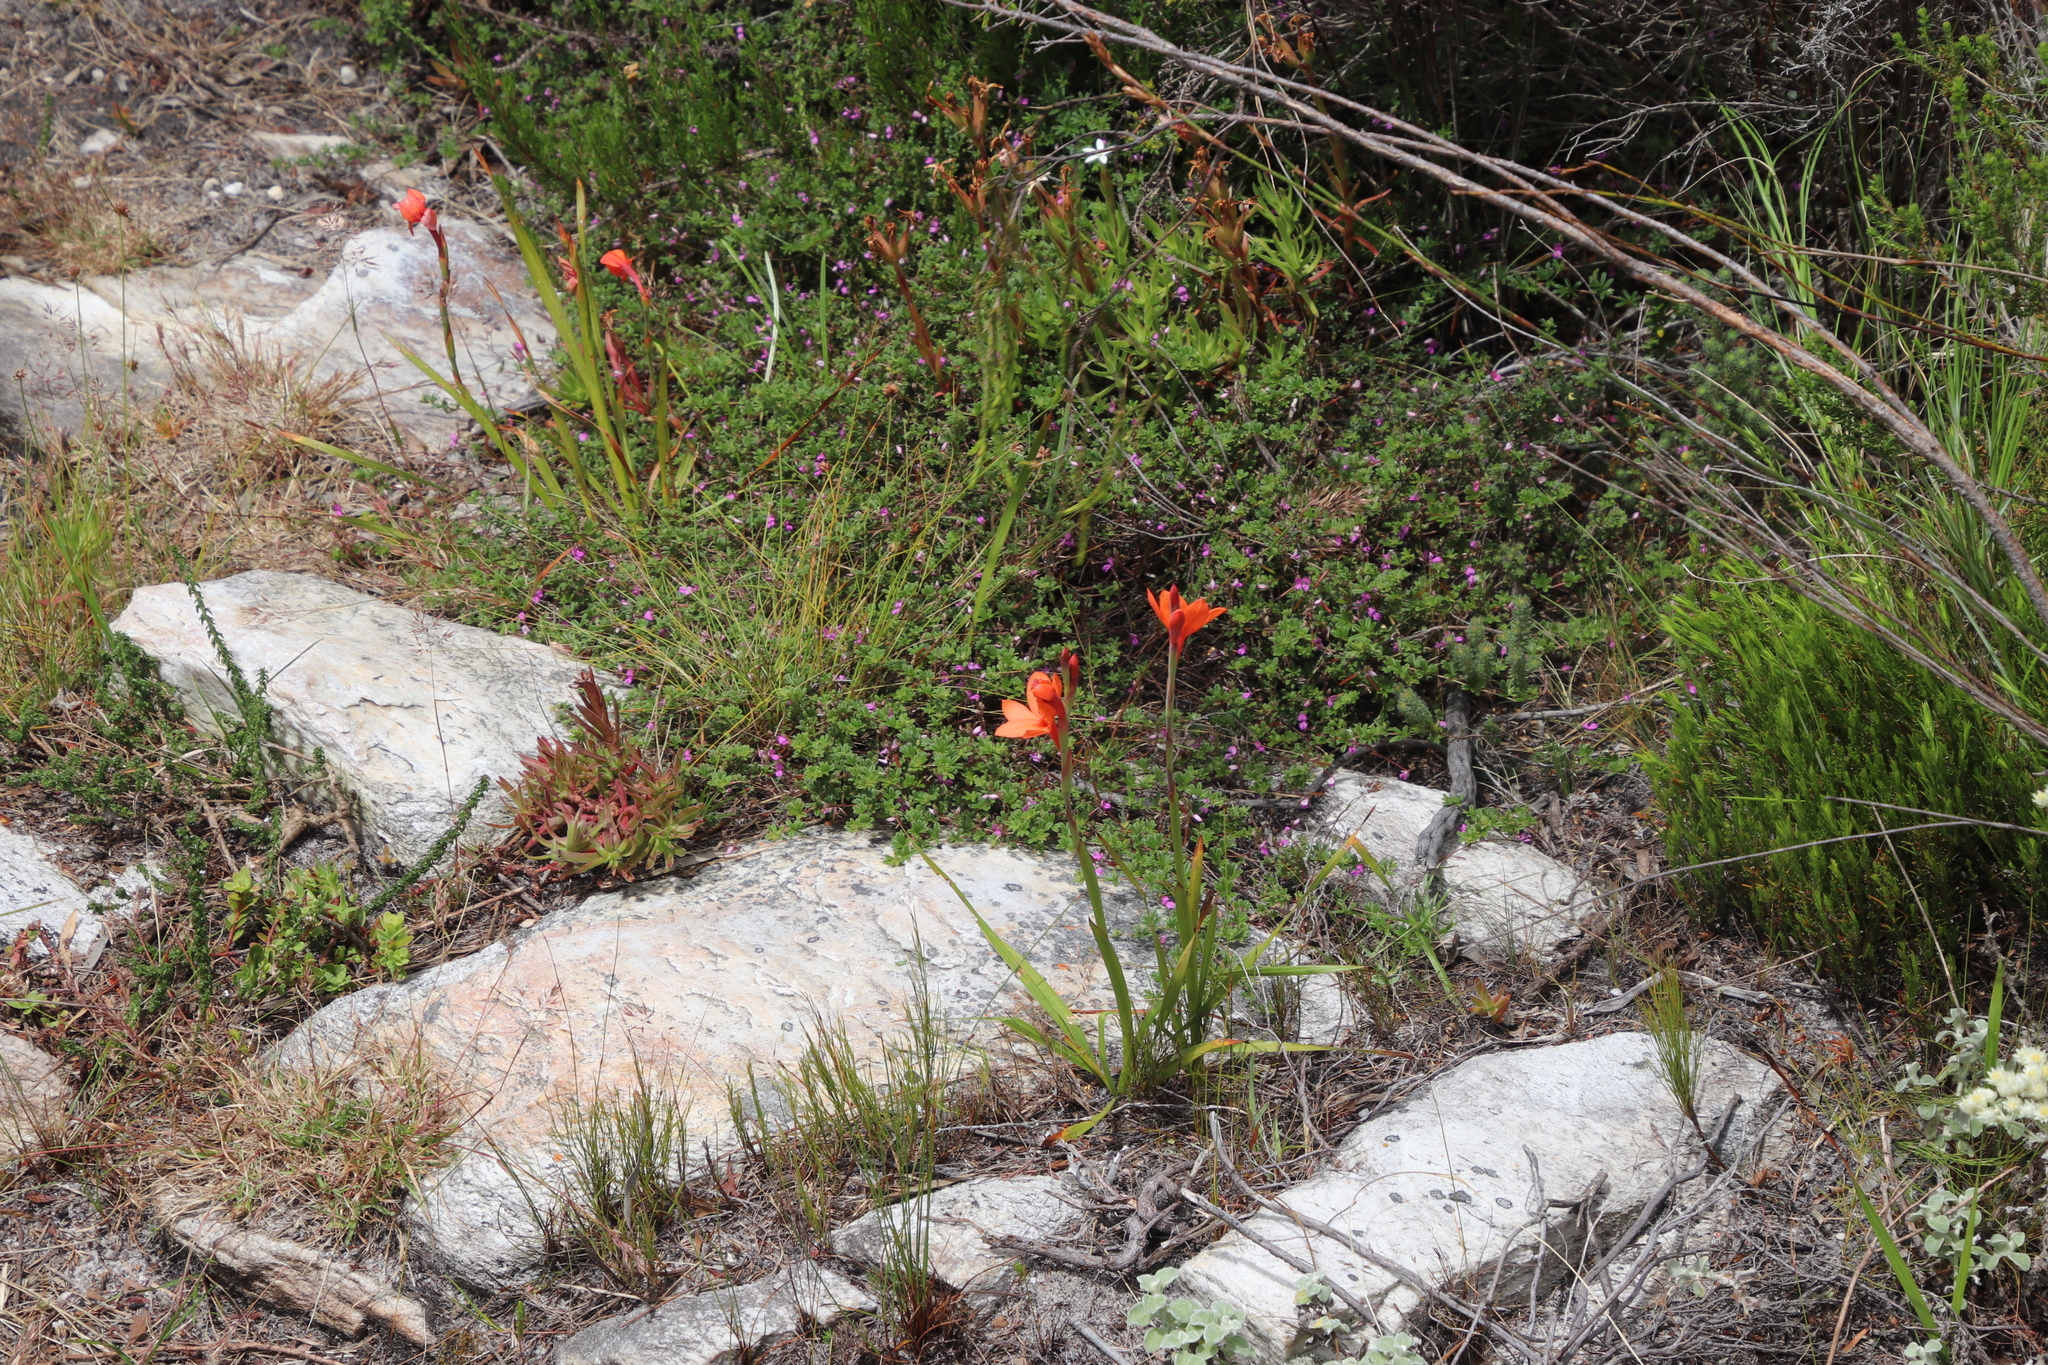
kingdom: Plantae
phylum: Tracheophyta
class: Liliopsida
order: Asparagales
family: Iridaceae
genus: Watsonia
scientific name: Watsonia stenosiphon
